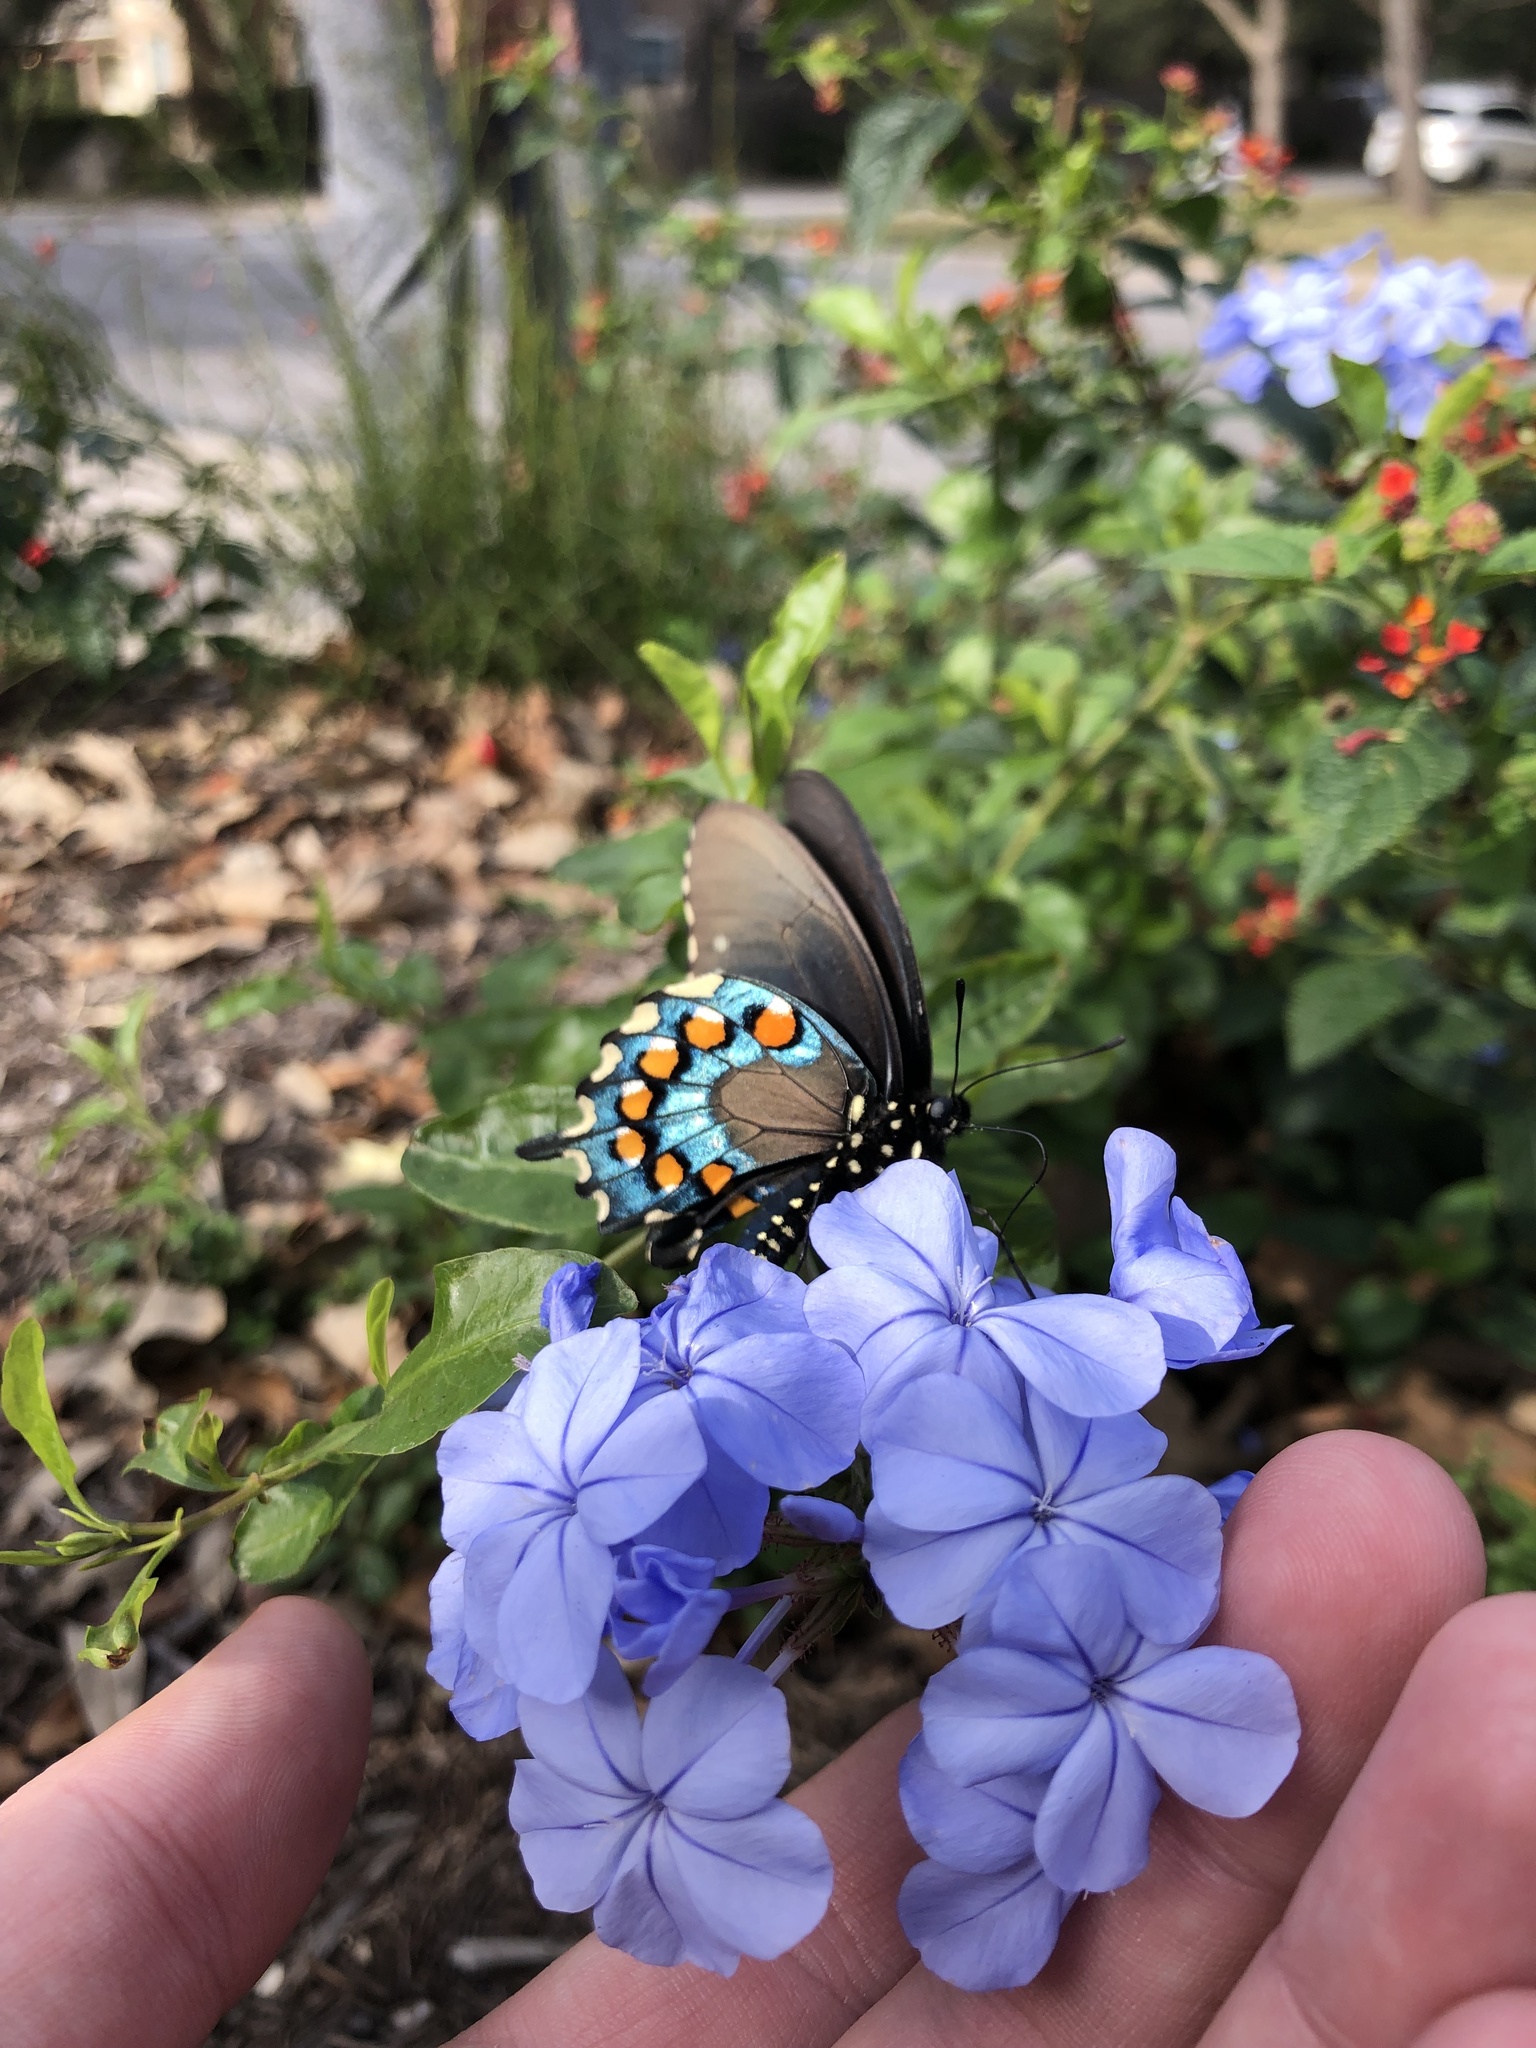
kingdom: Animalia
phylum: Arthropoda
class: Insecta
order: Lepidoptera
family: Papilionidae
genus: Battus
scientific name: Battus philenor
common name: Pipevine swallowtail
